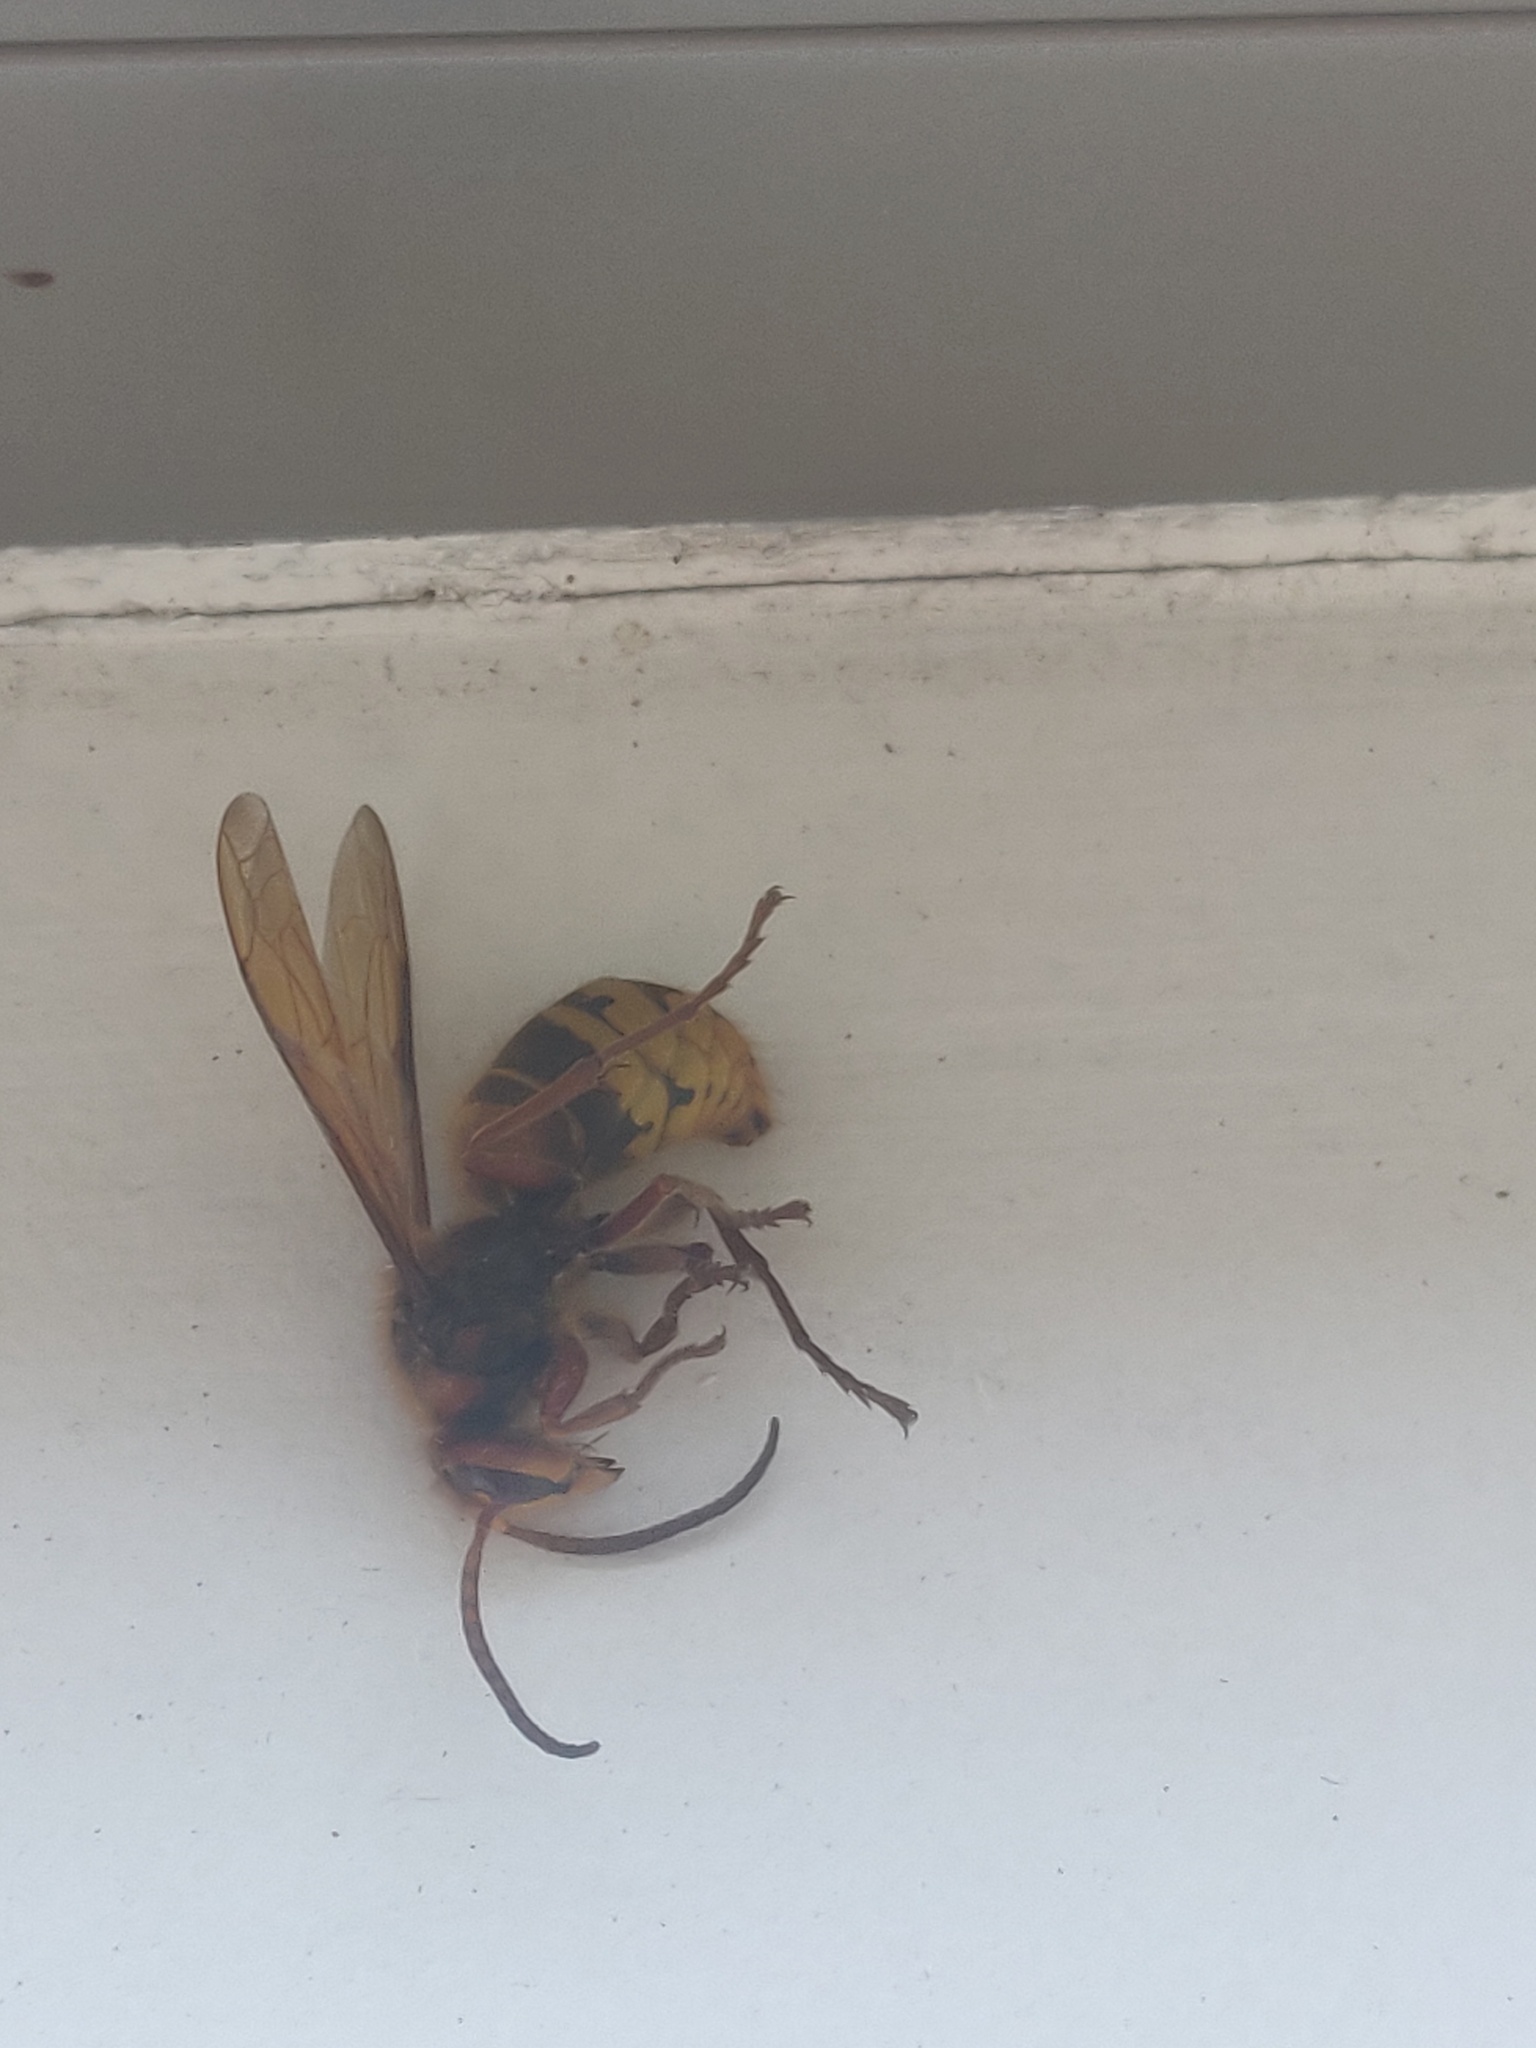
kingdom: Animalia
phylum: Arthropoda
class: Insecta
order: Hymenoptera
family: Vespidae
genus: Vespa
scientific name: Vespa crabro
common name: Hornet
